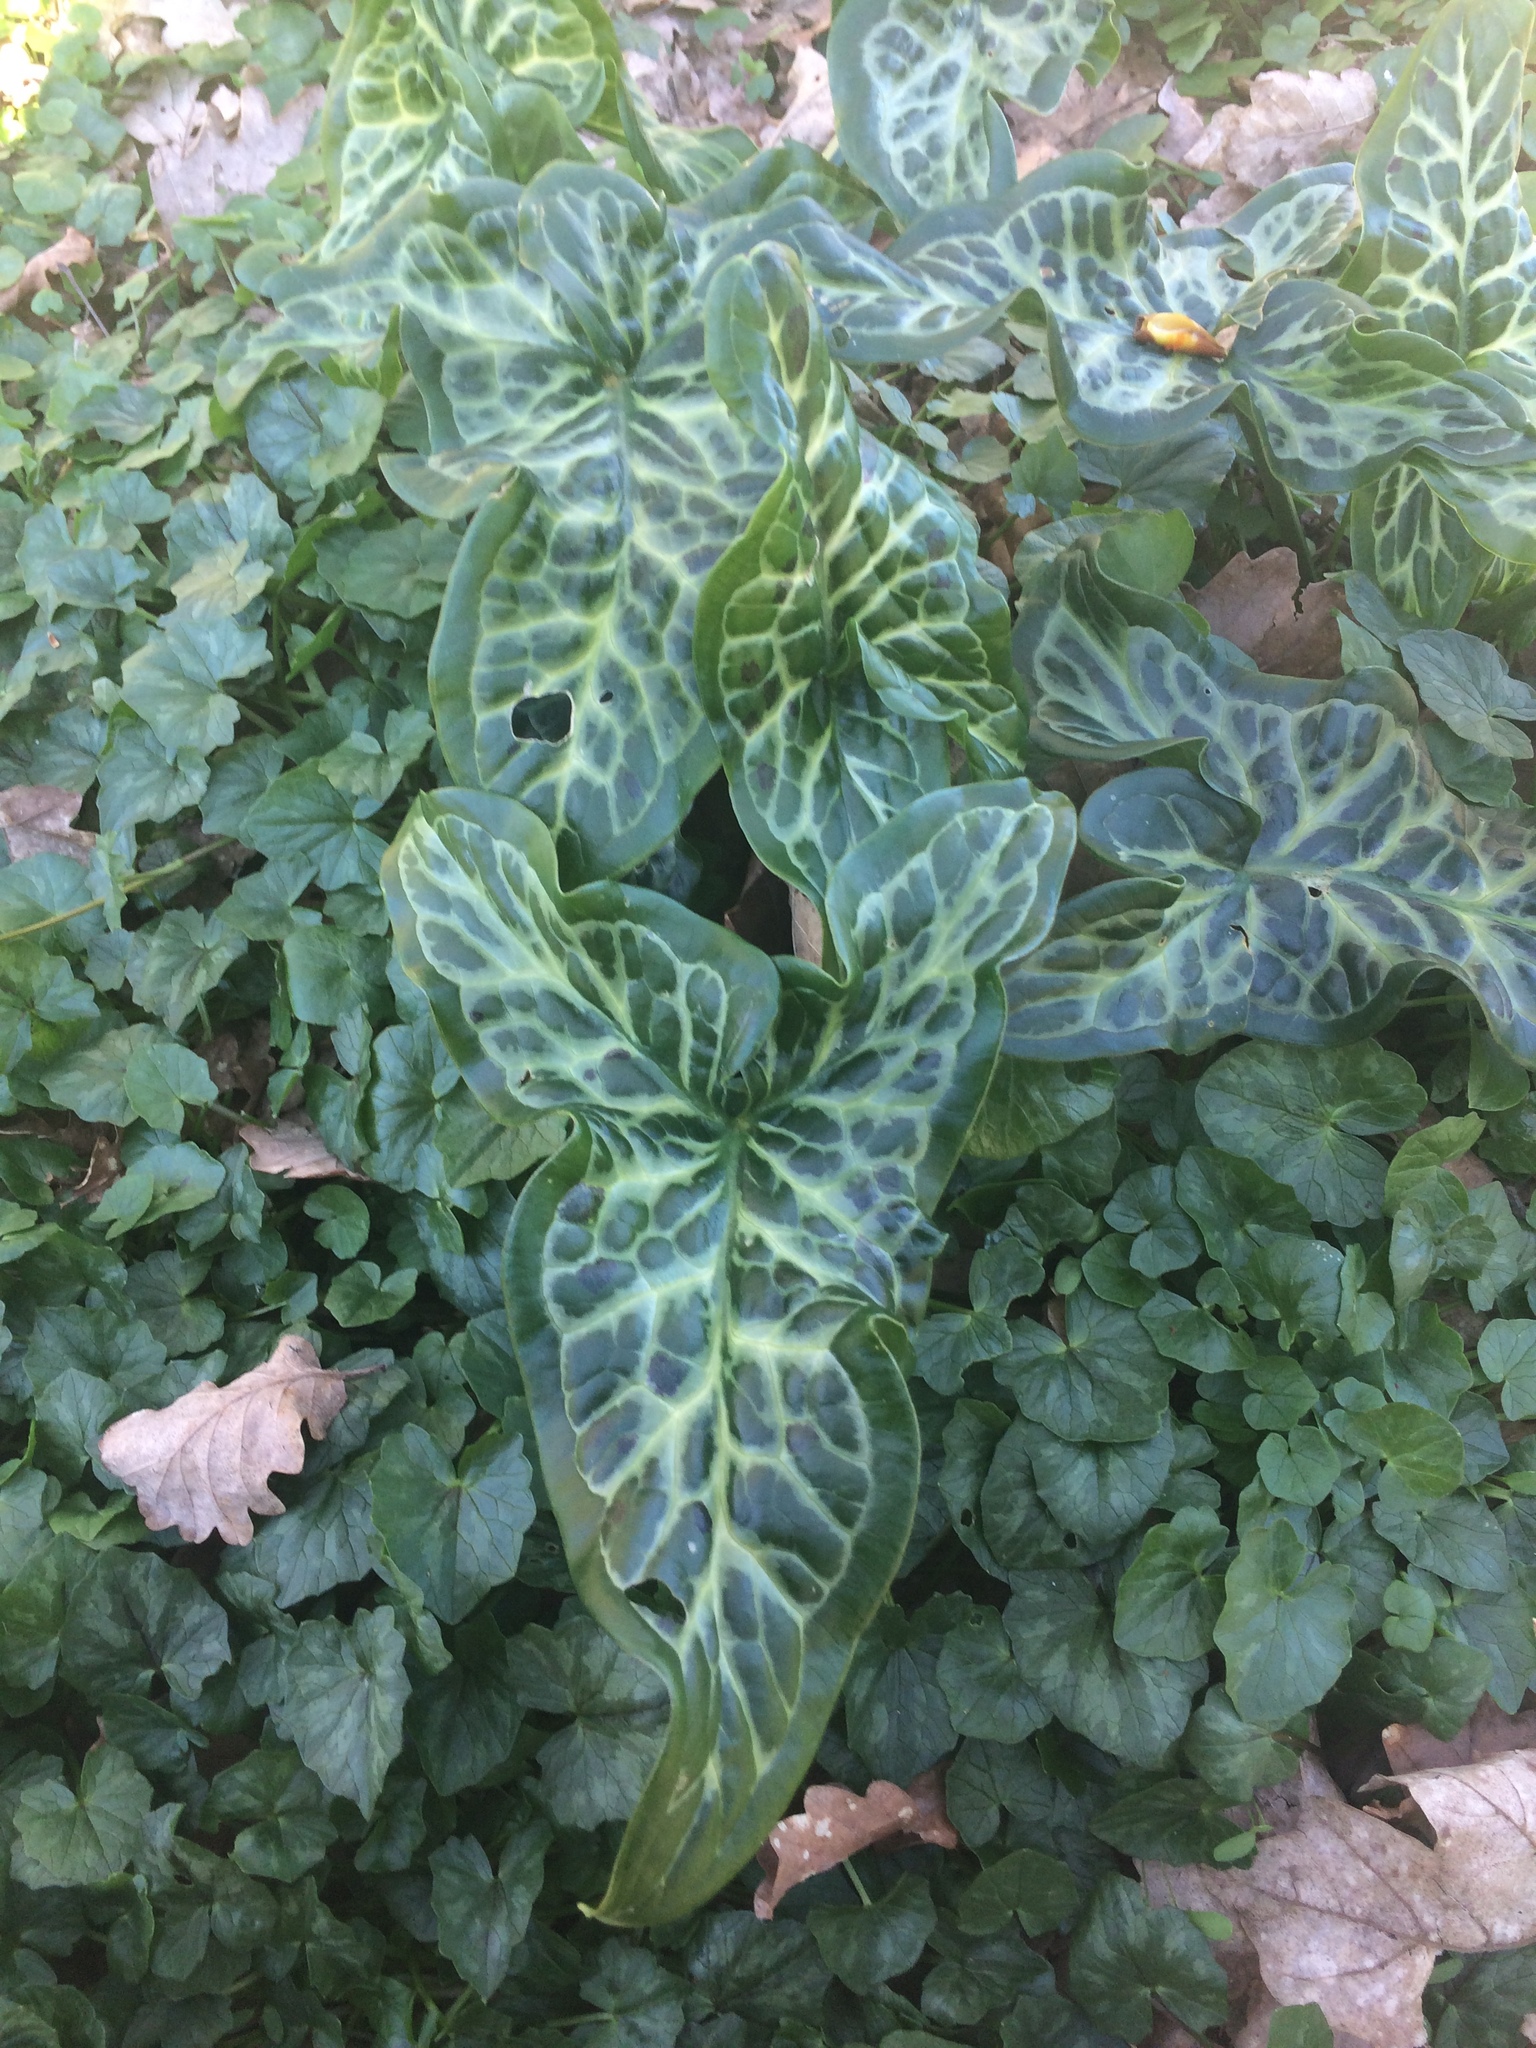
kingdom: Plantae
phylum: Tracheophyta
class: Liliopsida
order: Alismatales
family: Araceae
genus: Arum
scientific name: Arum italicum
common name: Italian lords-and-ladies
